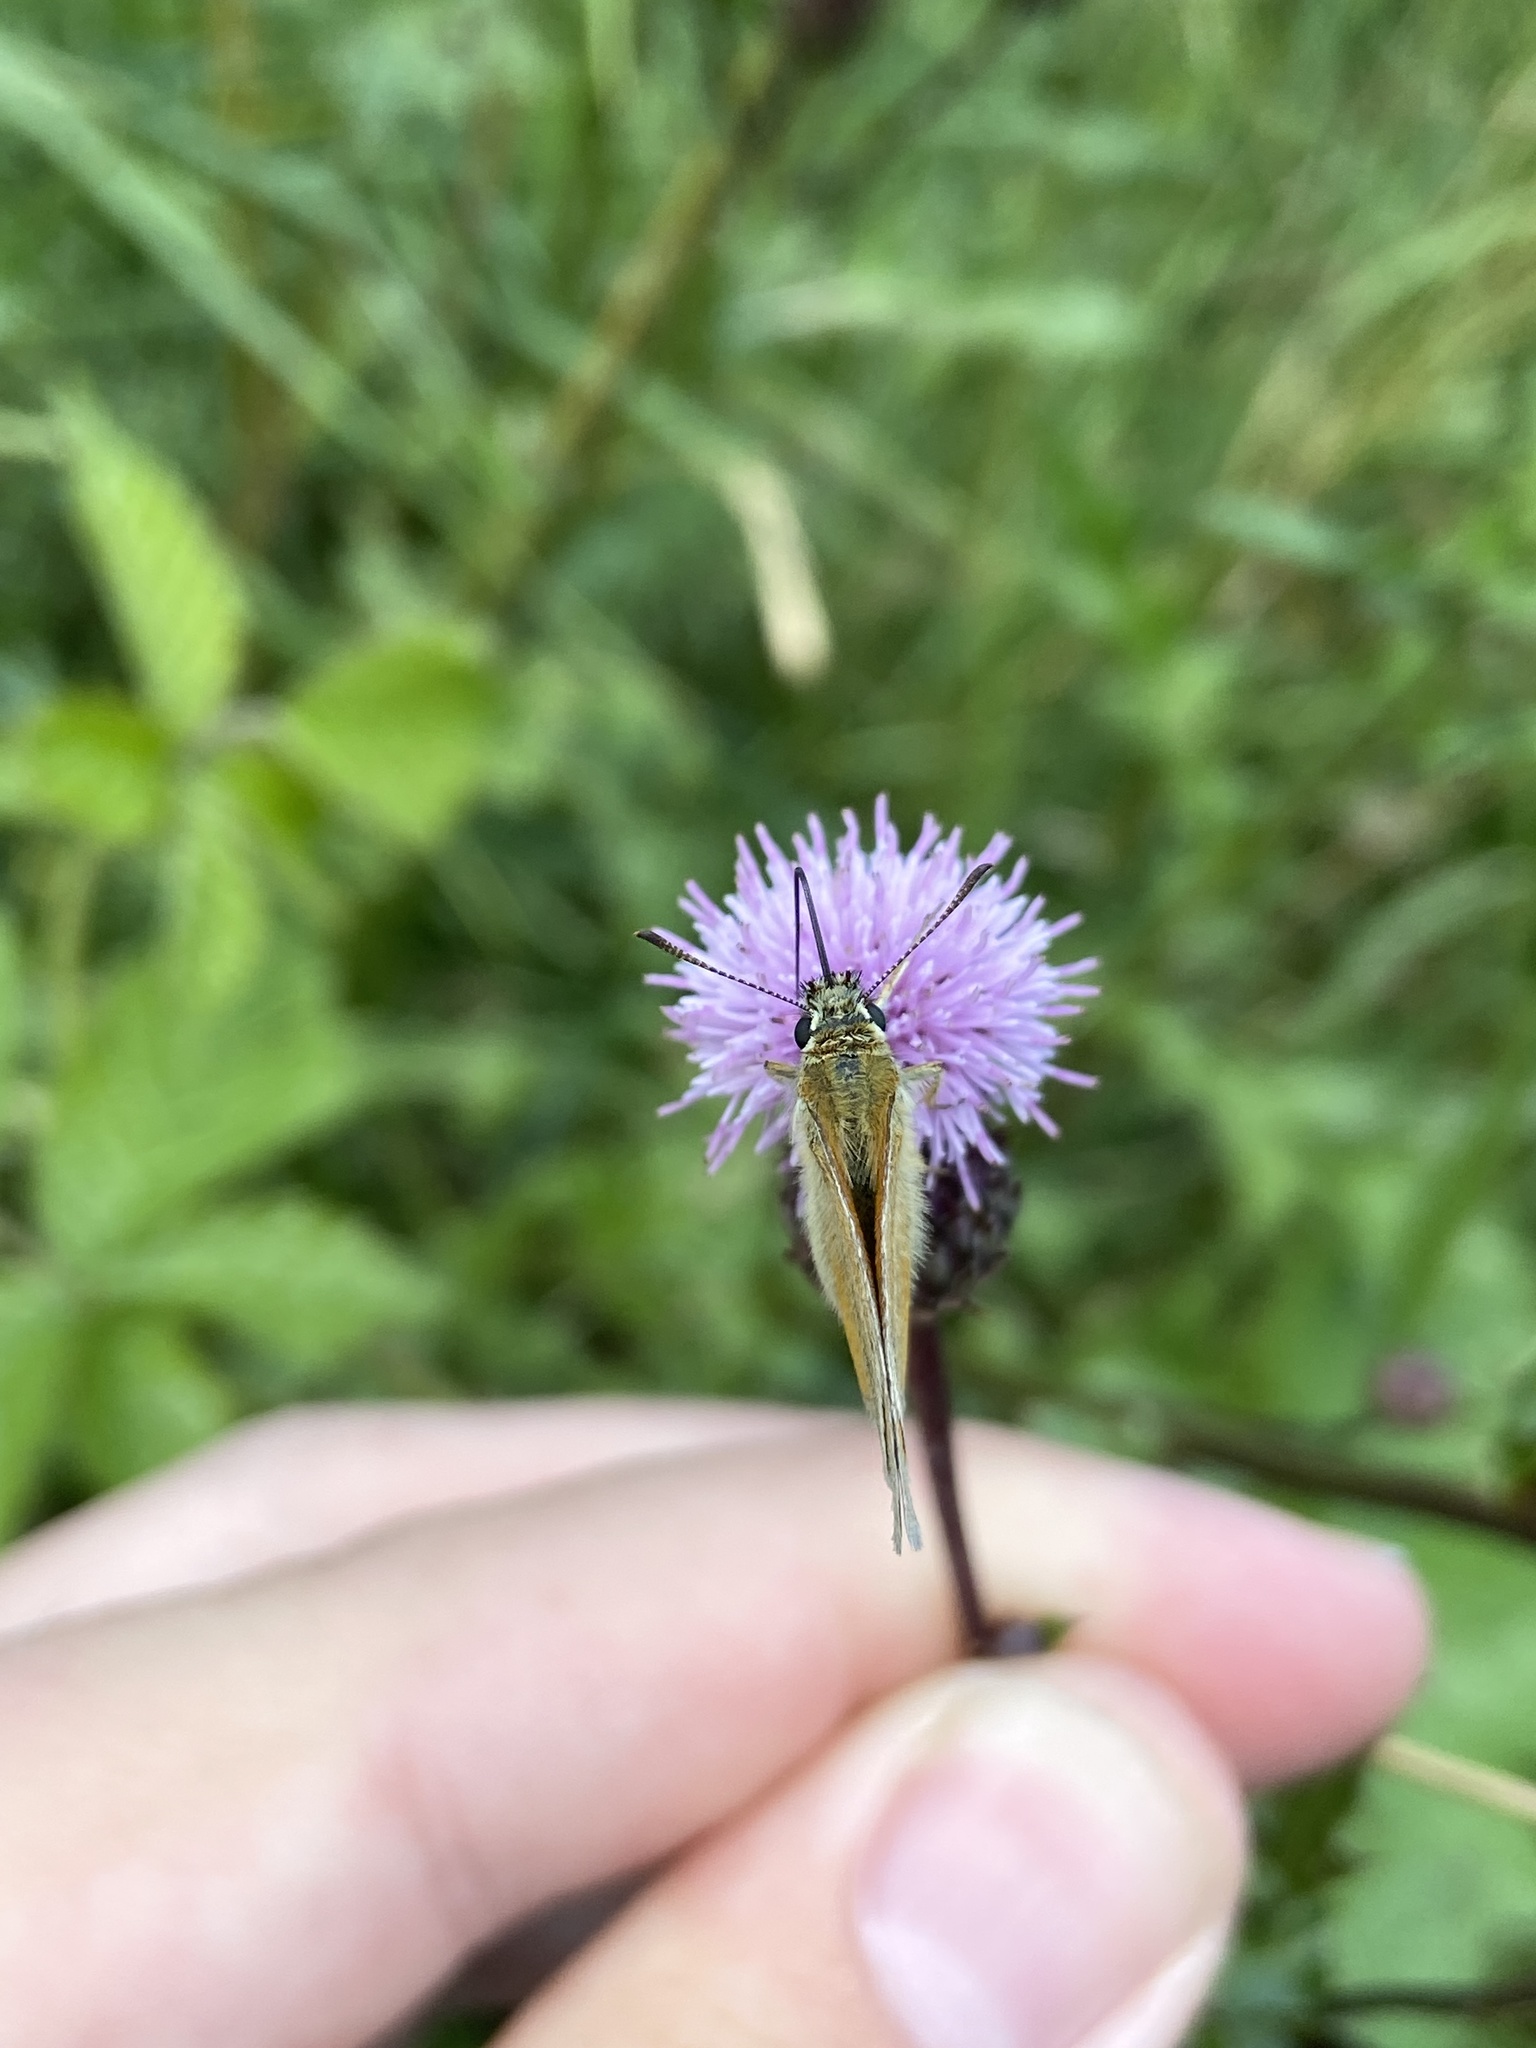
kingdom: Animalia
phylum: Arthropoda
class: Insecta
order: Lepidoptera
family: Hesperiidae
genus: Thymelicus
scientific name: Thymelicus lineola
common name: Essex skipper
